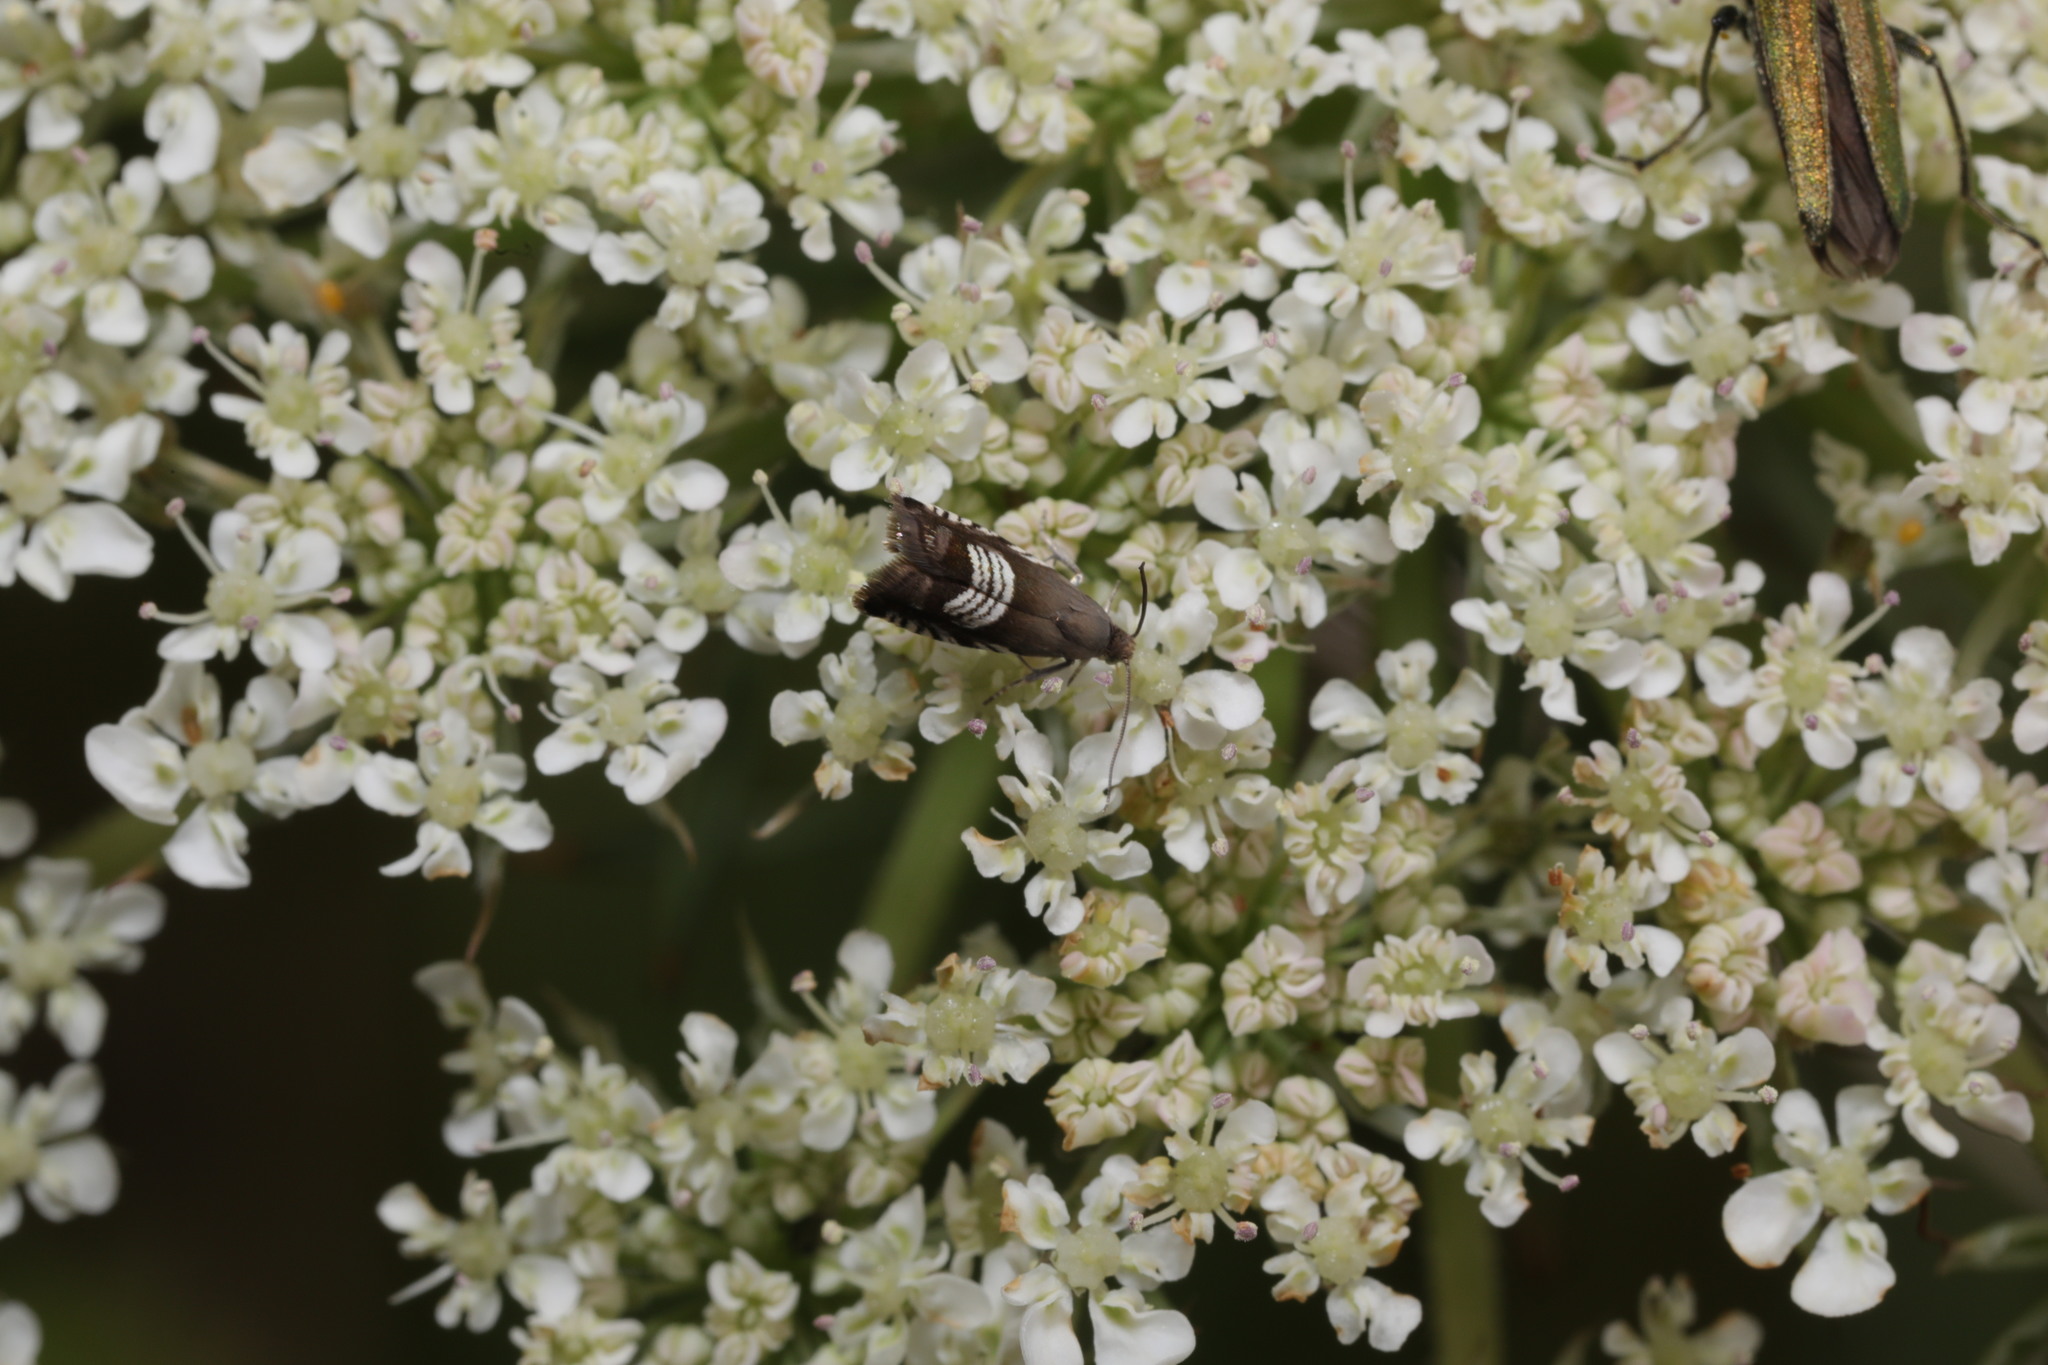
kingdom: Animalia
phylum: Arthropoda
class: Insecta
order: Lepidoptera
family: Tortricidae
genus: Grapholita
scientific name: Grapholita compositella
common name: Triple-stripe piercer
